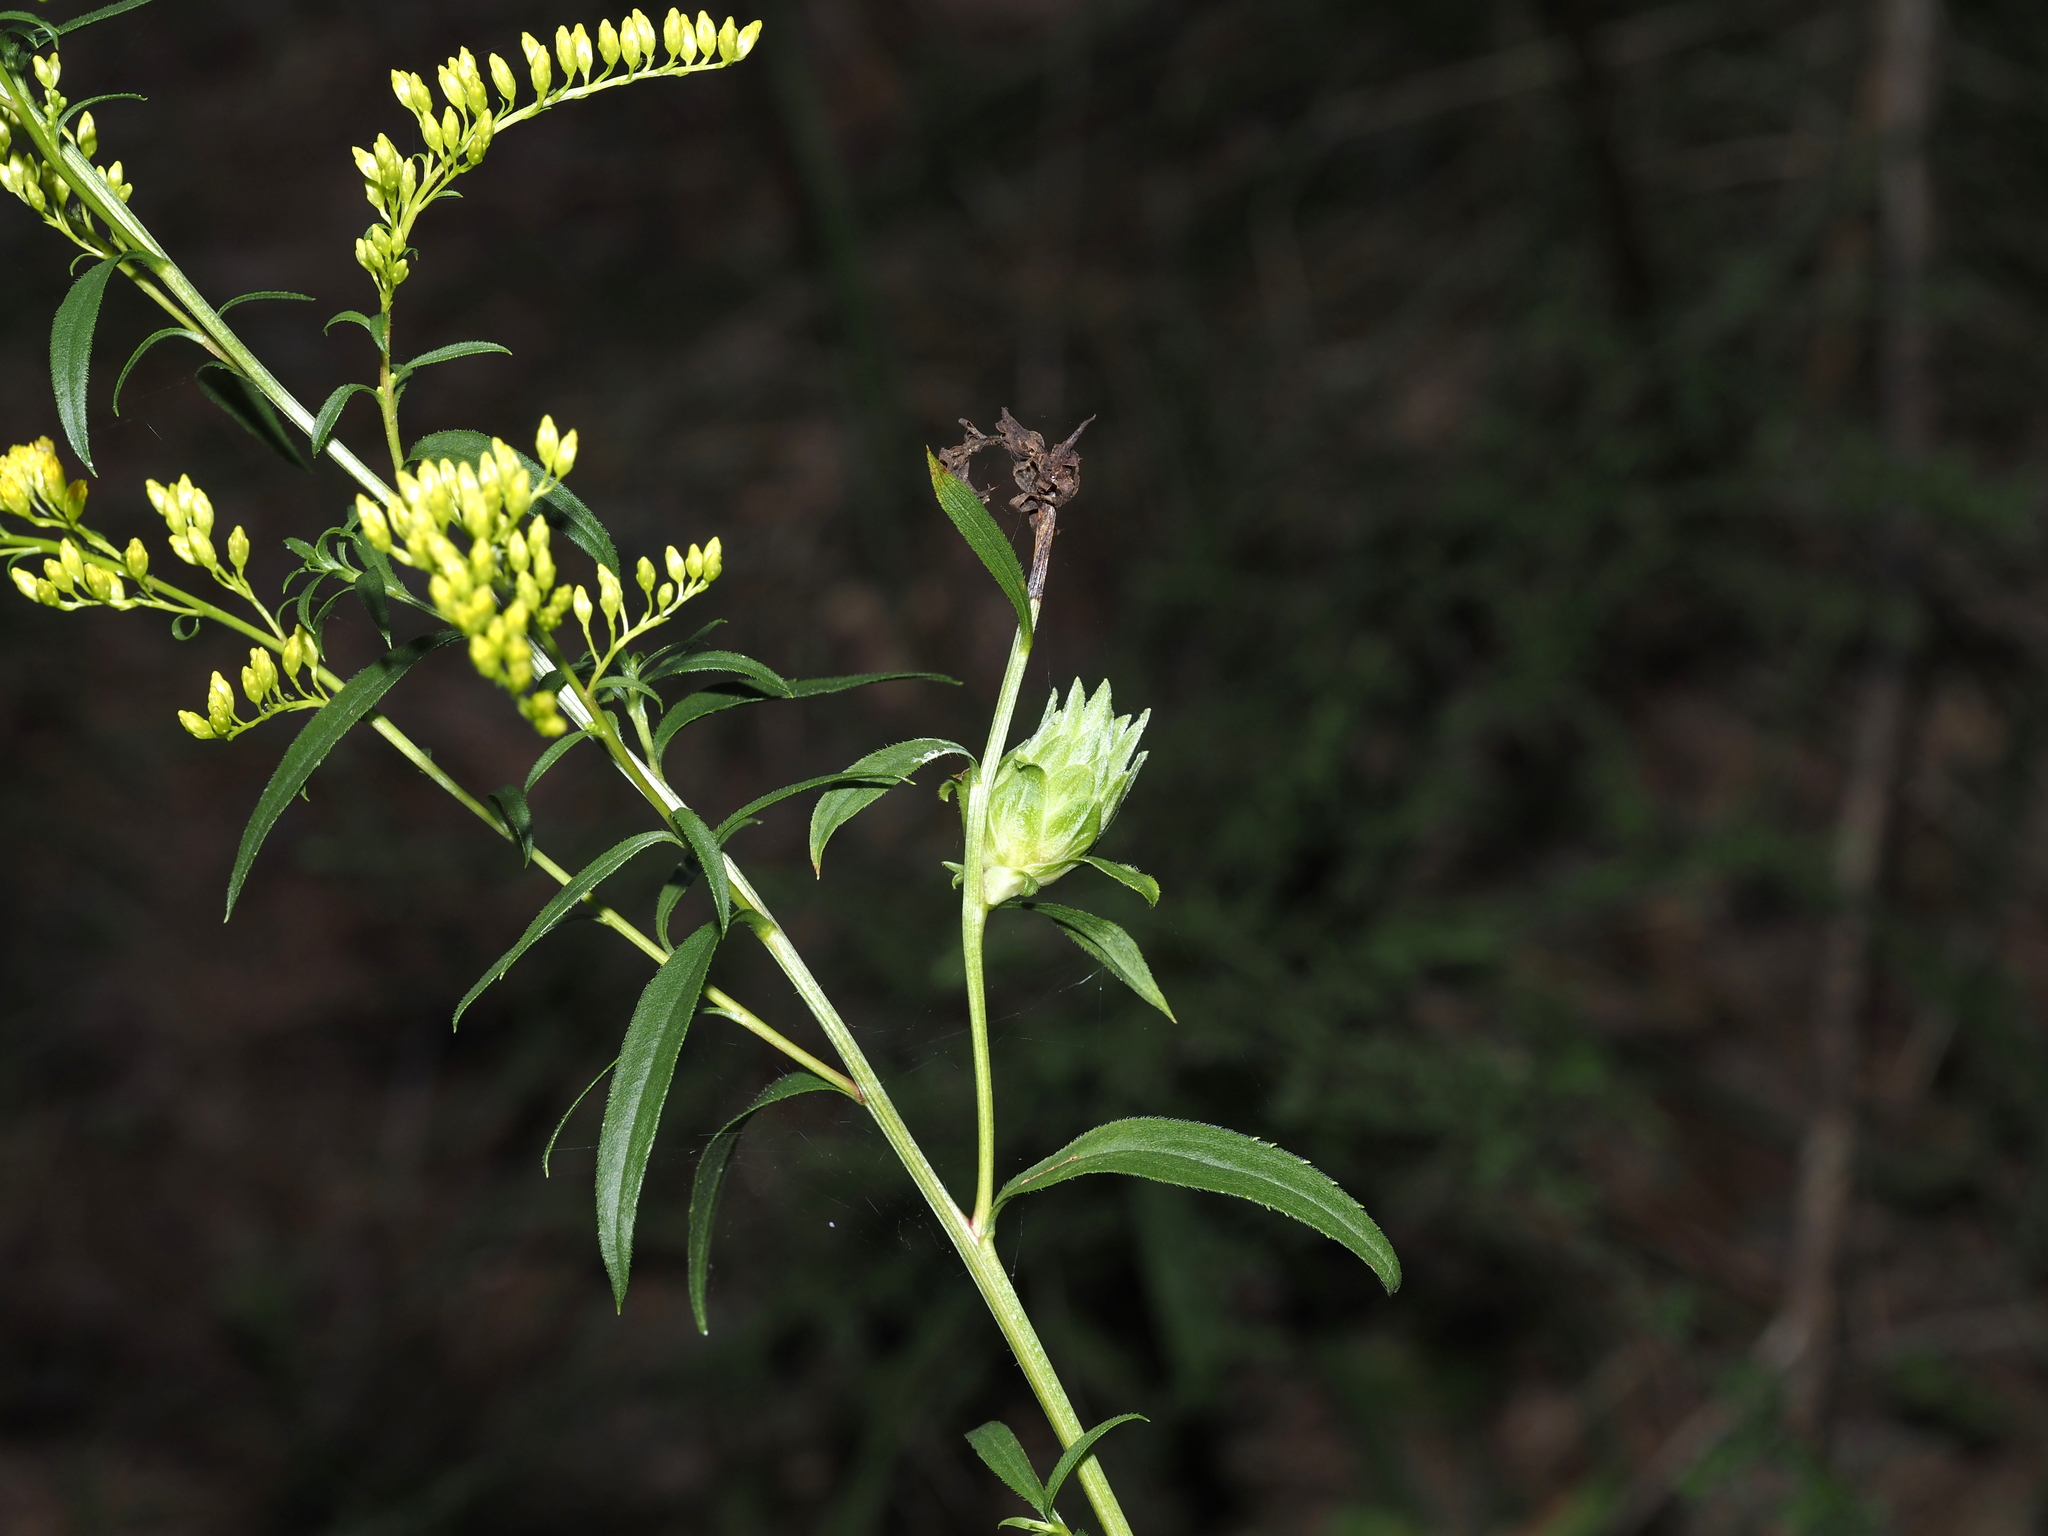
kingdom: Animalia
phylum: Arthropoda
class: Insecta
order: Diptera
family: Tephritidae
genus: Procecidochares
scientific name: Procecidochares atra
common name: Goldenrod brussels sprout gall fly
